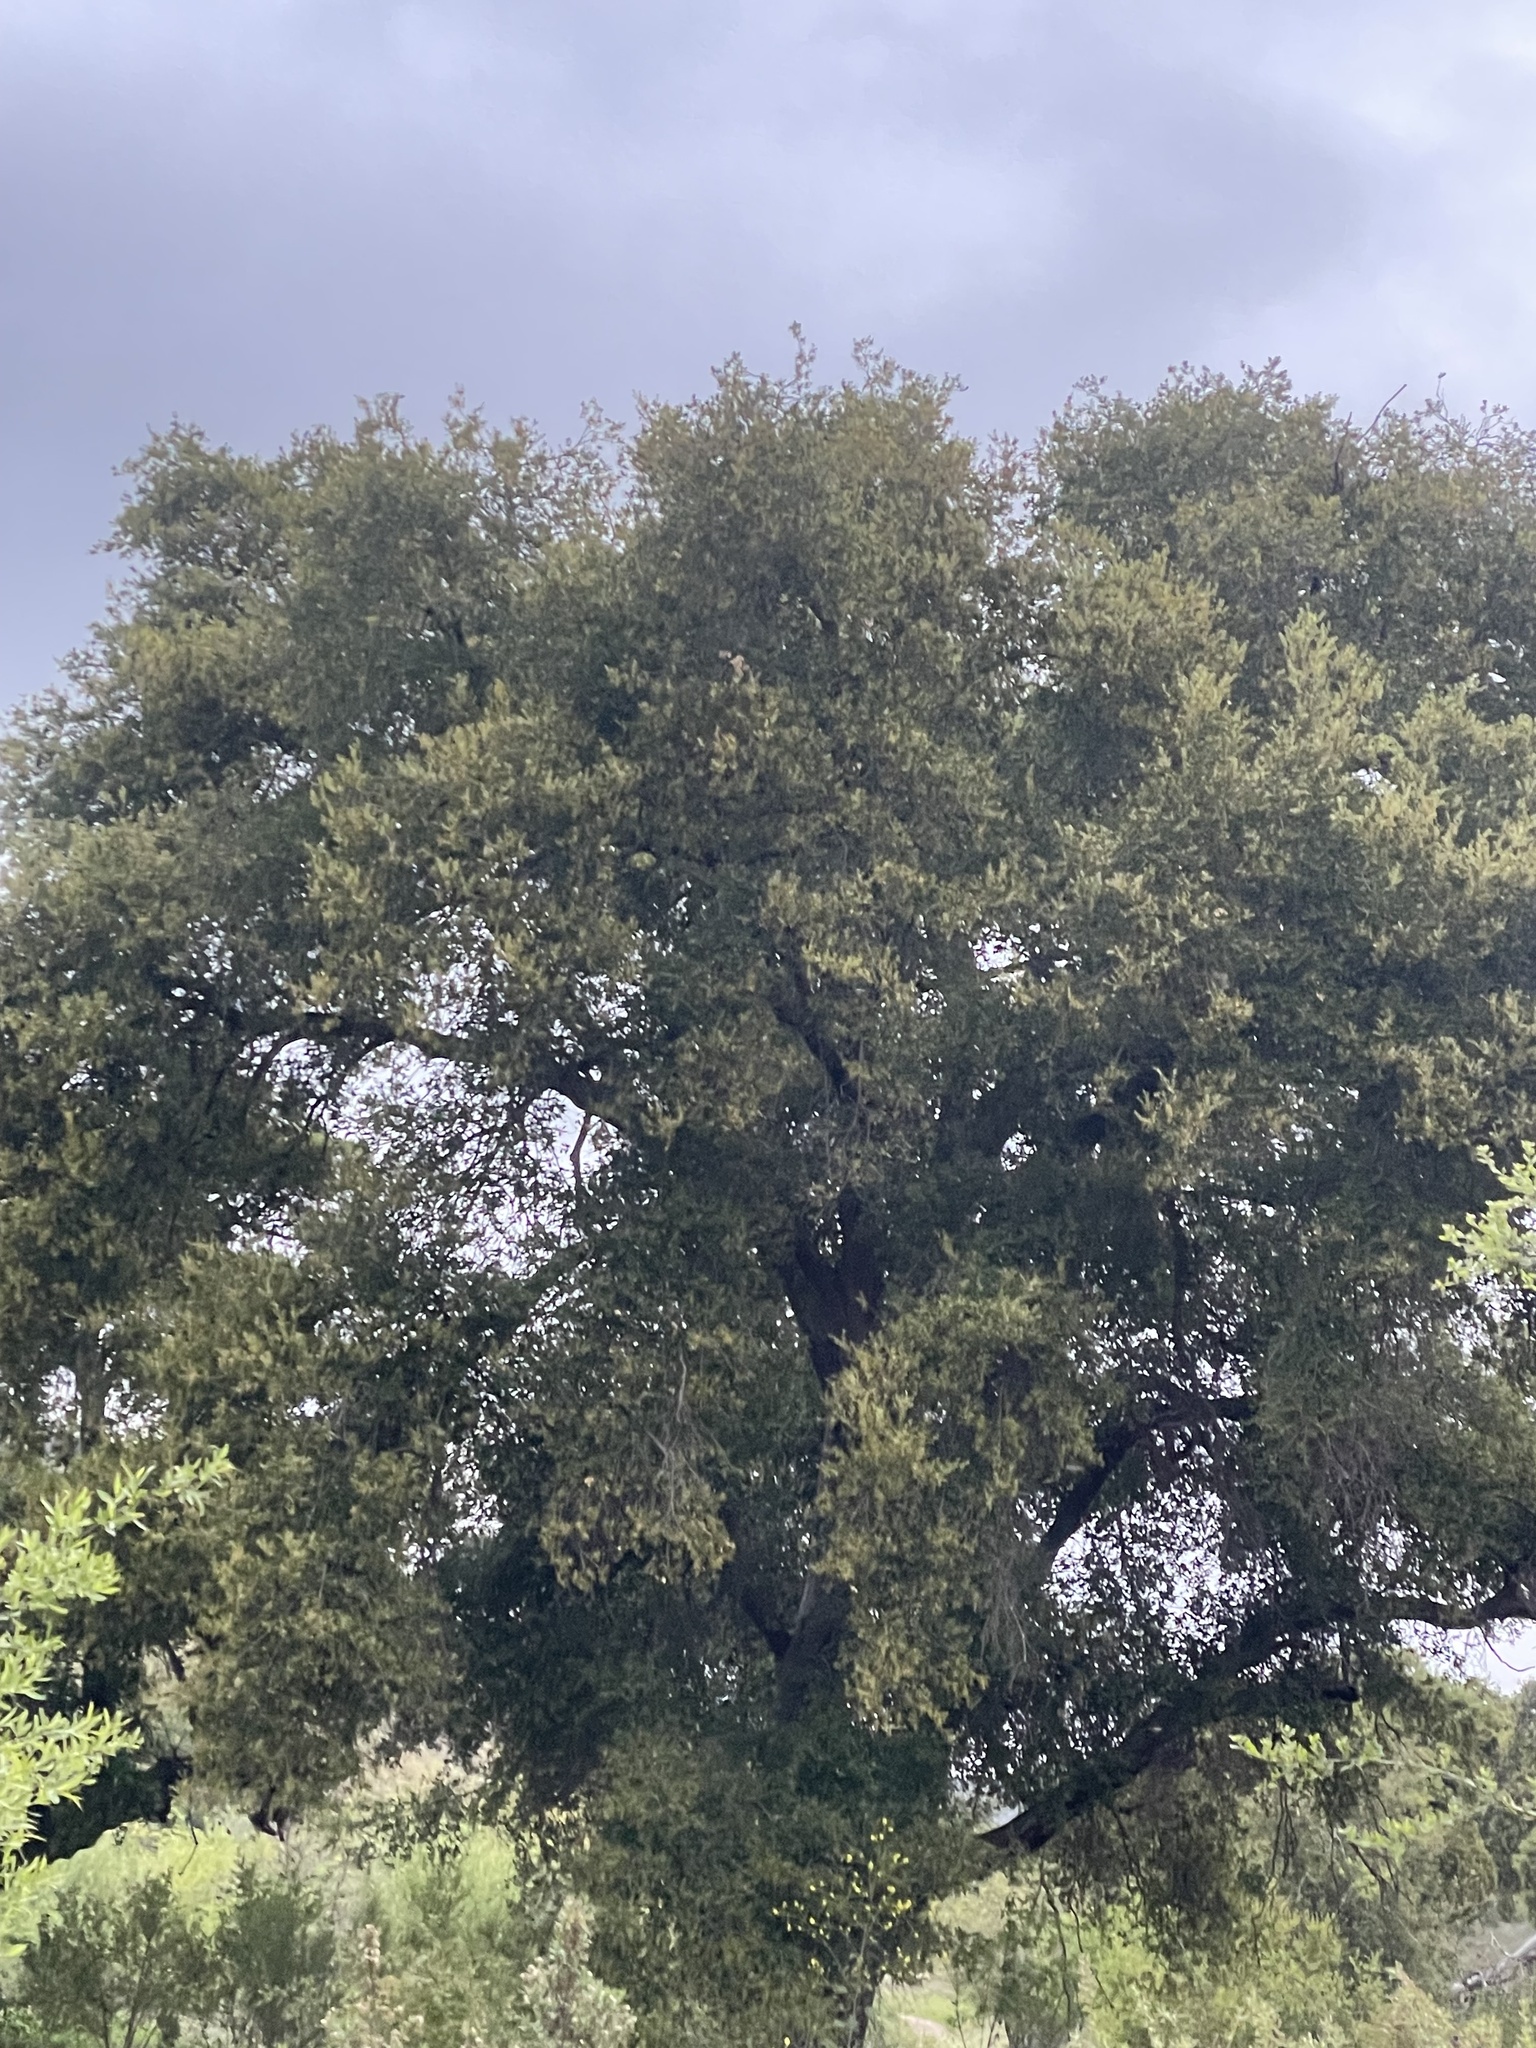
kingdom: Plantae
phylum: Tracheophyta
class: Magnoliopsida
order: Fagales
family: Fagaceae
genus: Quercus
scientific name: Quercus agrifolia
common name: California live oak
